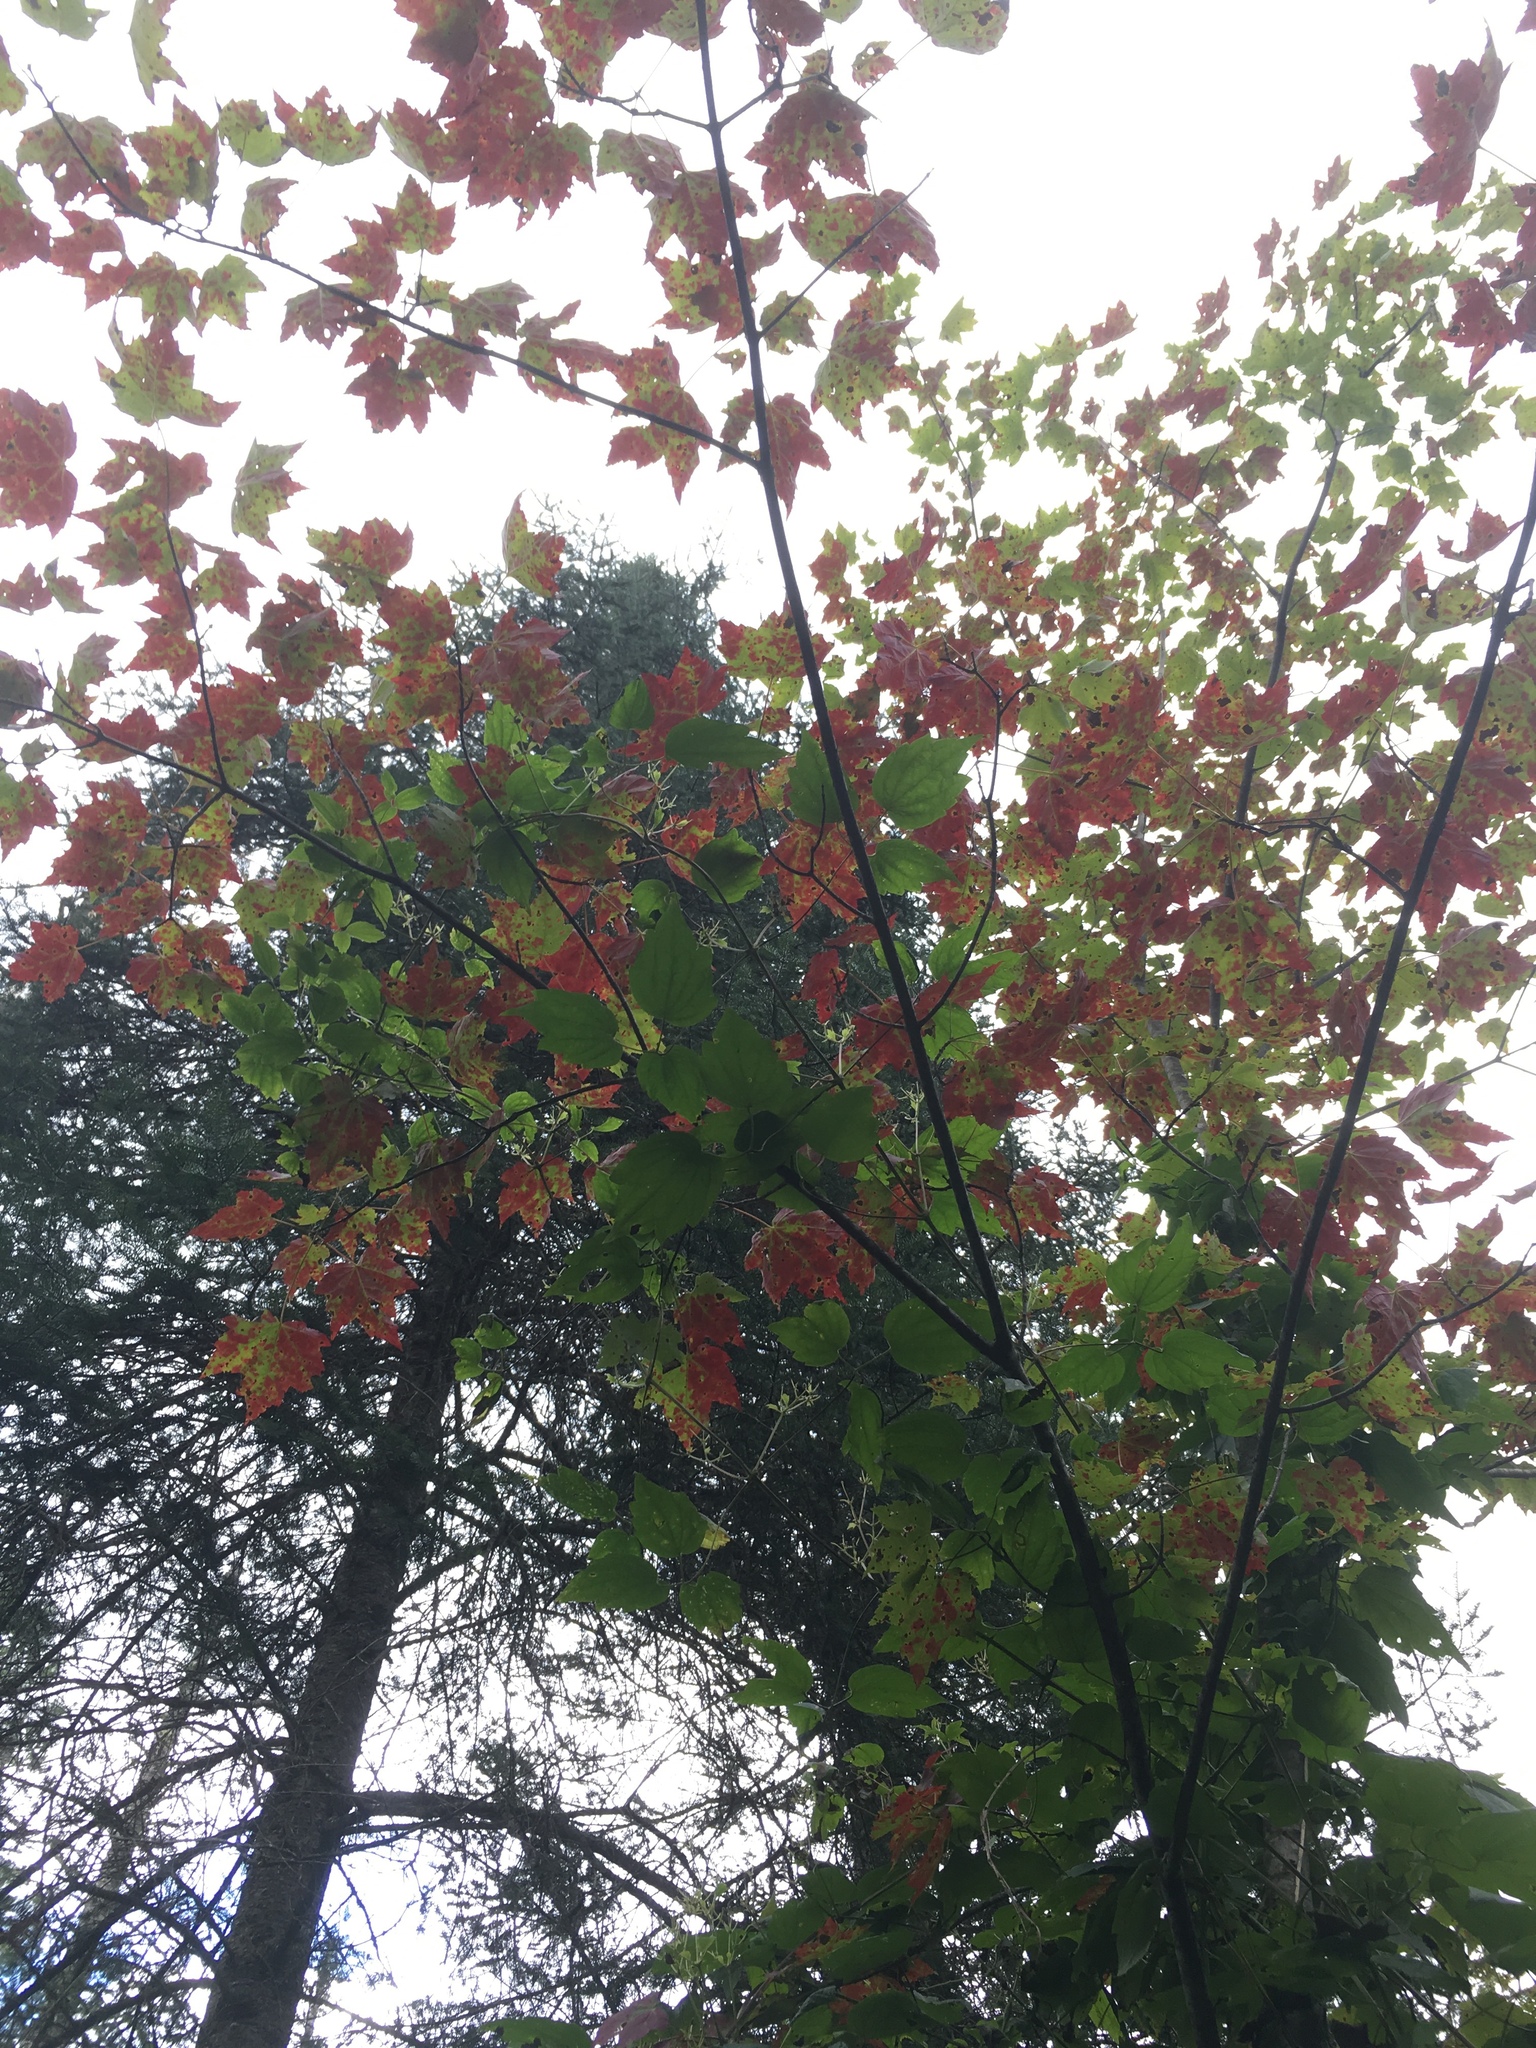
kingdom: Plantae
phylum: Tracheophyta
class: Magnoliopsida
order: Sapindales
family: Sapindaceae
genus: Acer
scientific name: Acer rubrum
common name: Red maple
